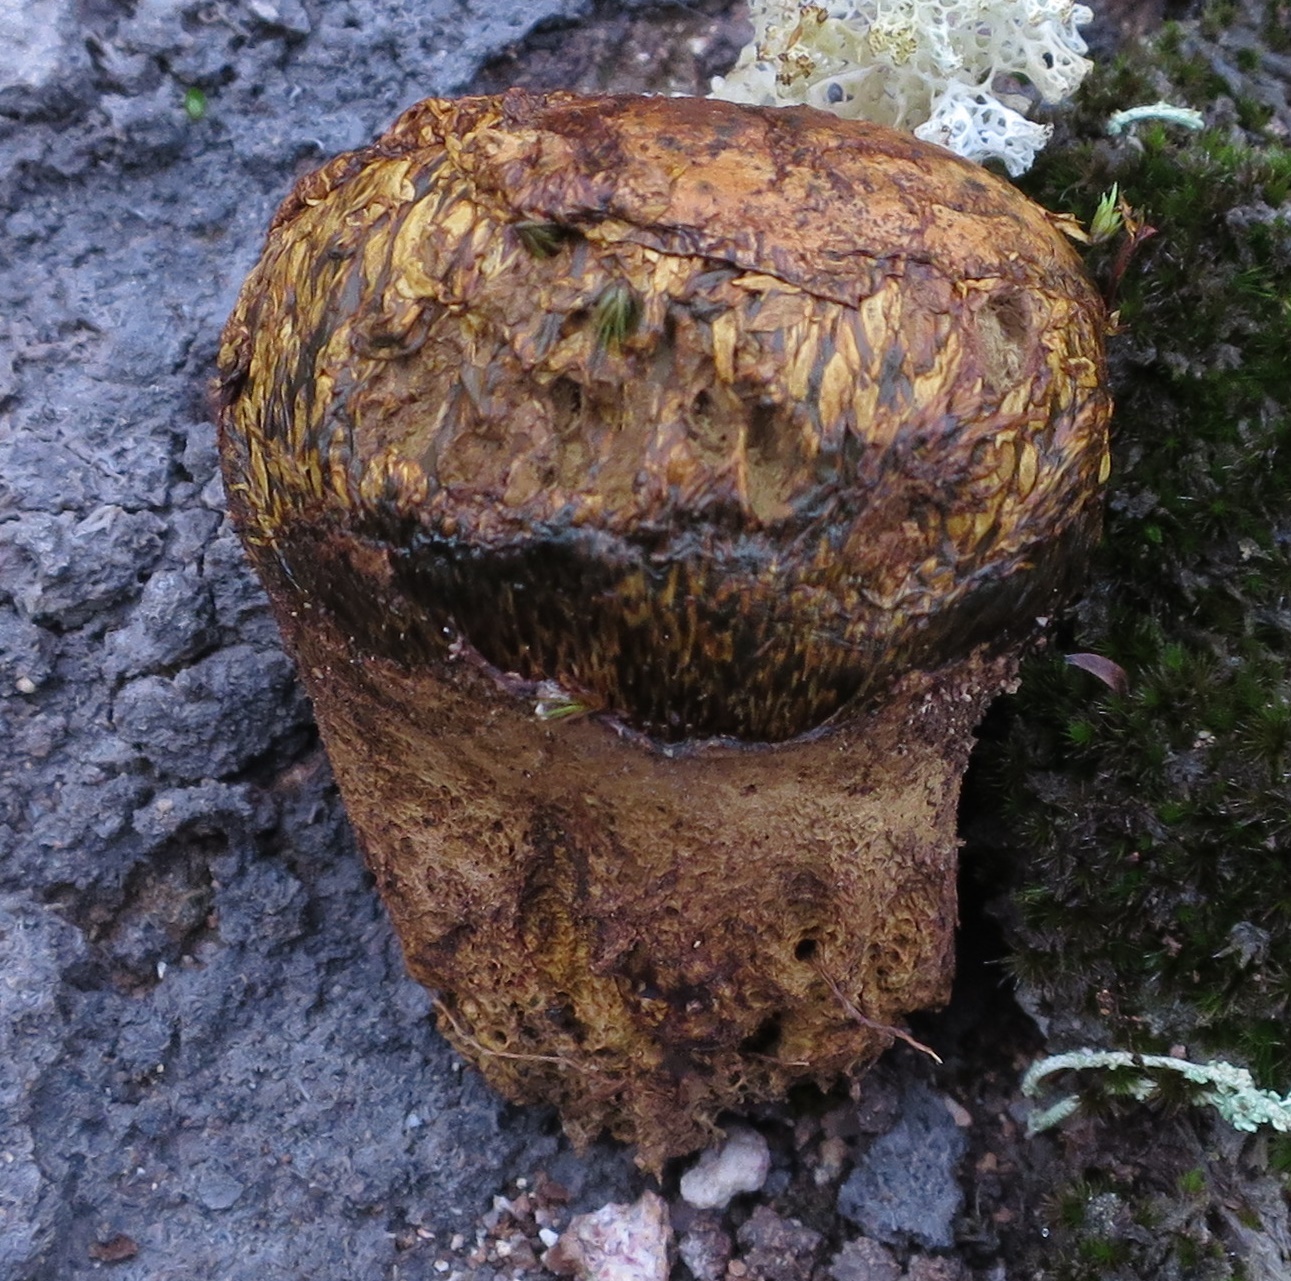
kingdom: Fungi
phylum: Basidiomycota
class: Agaricomycetes
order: Boletales
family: Sclerodermataceae
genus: Pisolithus
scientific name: Pisolithus thermaeus
